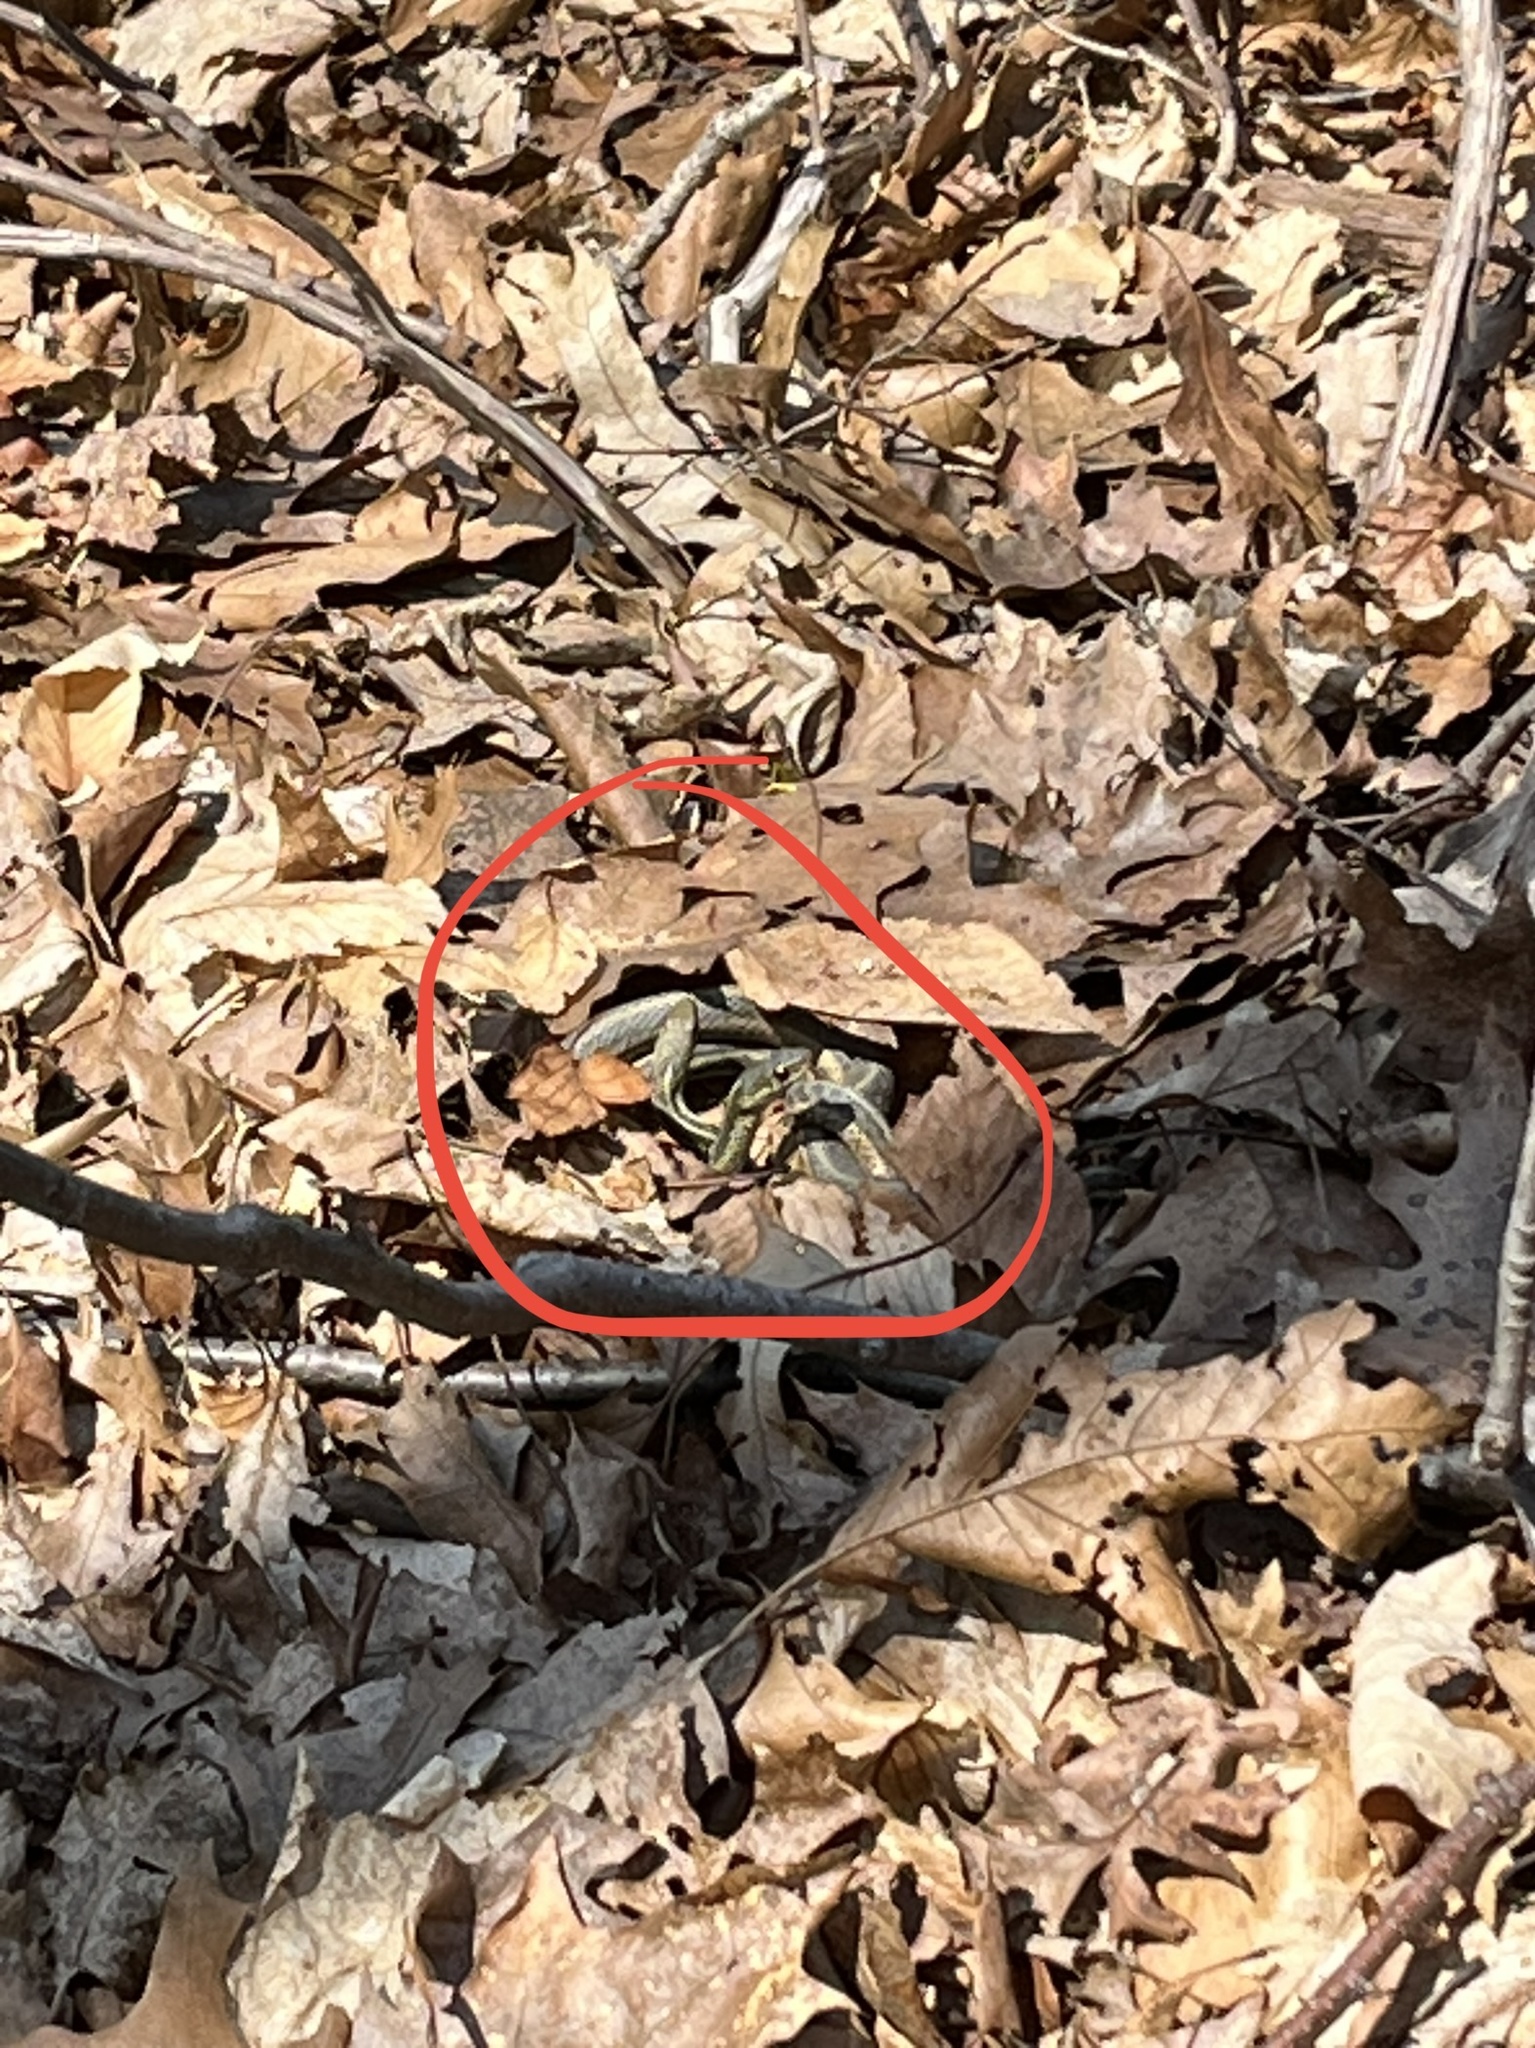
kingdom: Animalia
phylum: Chordata
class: Squamata
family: Colubridae
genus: Thamnophis
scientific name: Thamnophis sirtalis
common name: Common garter snake
